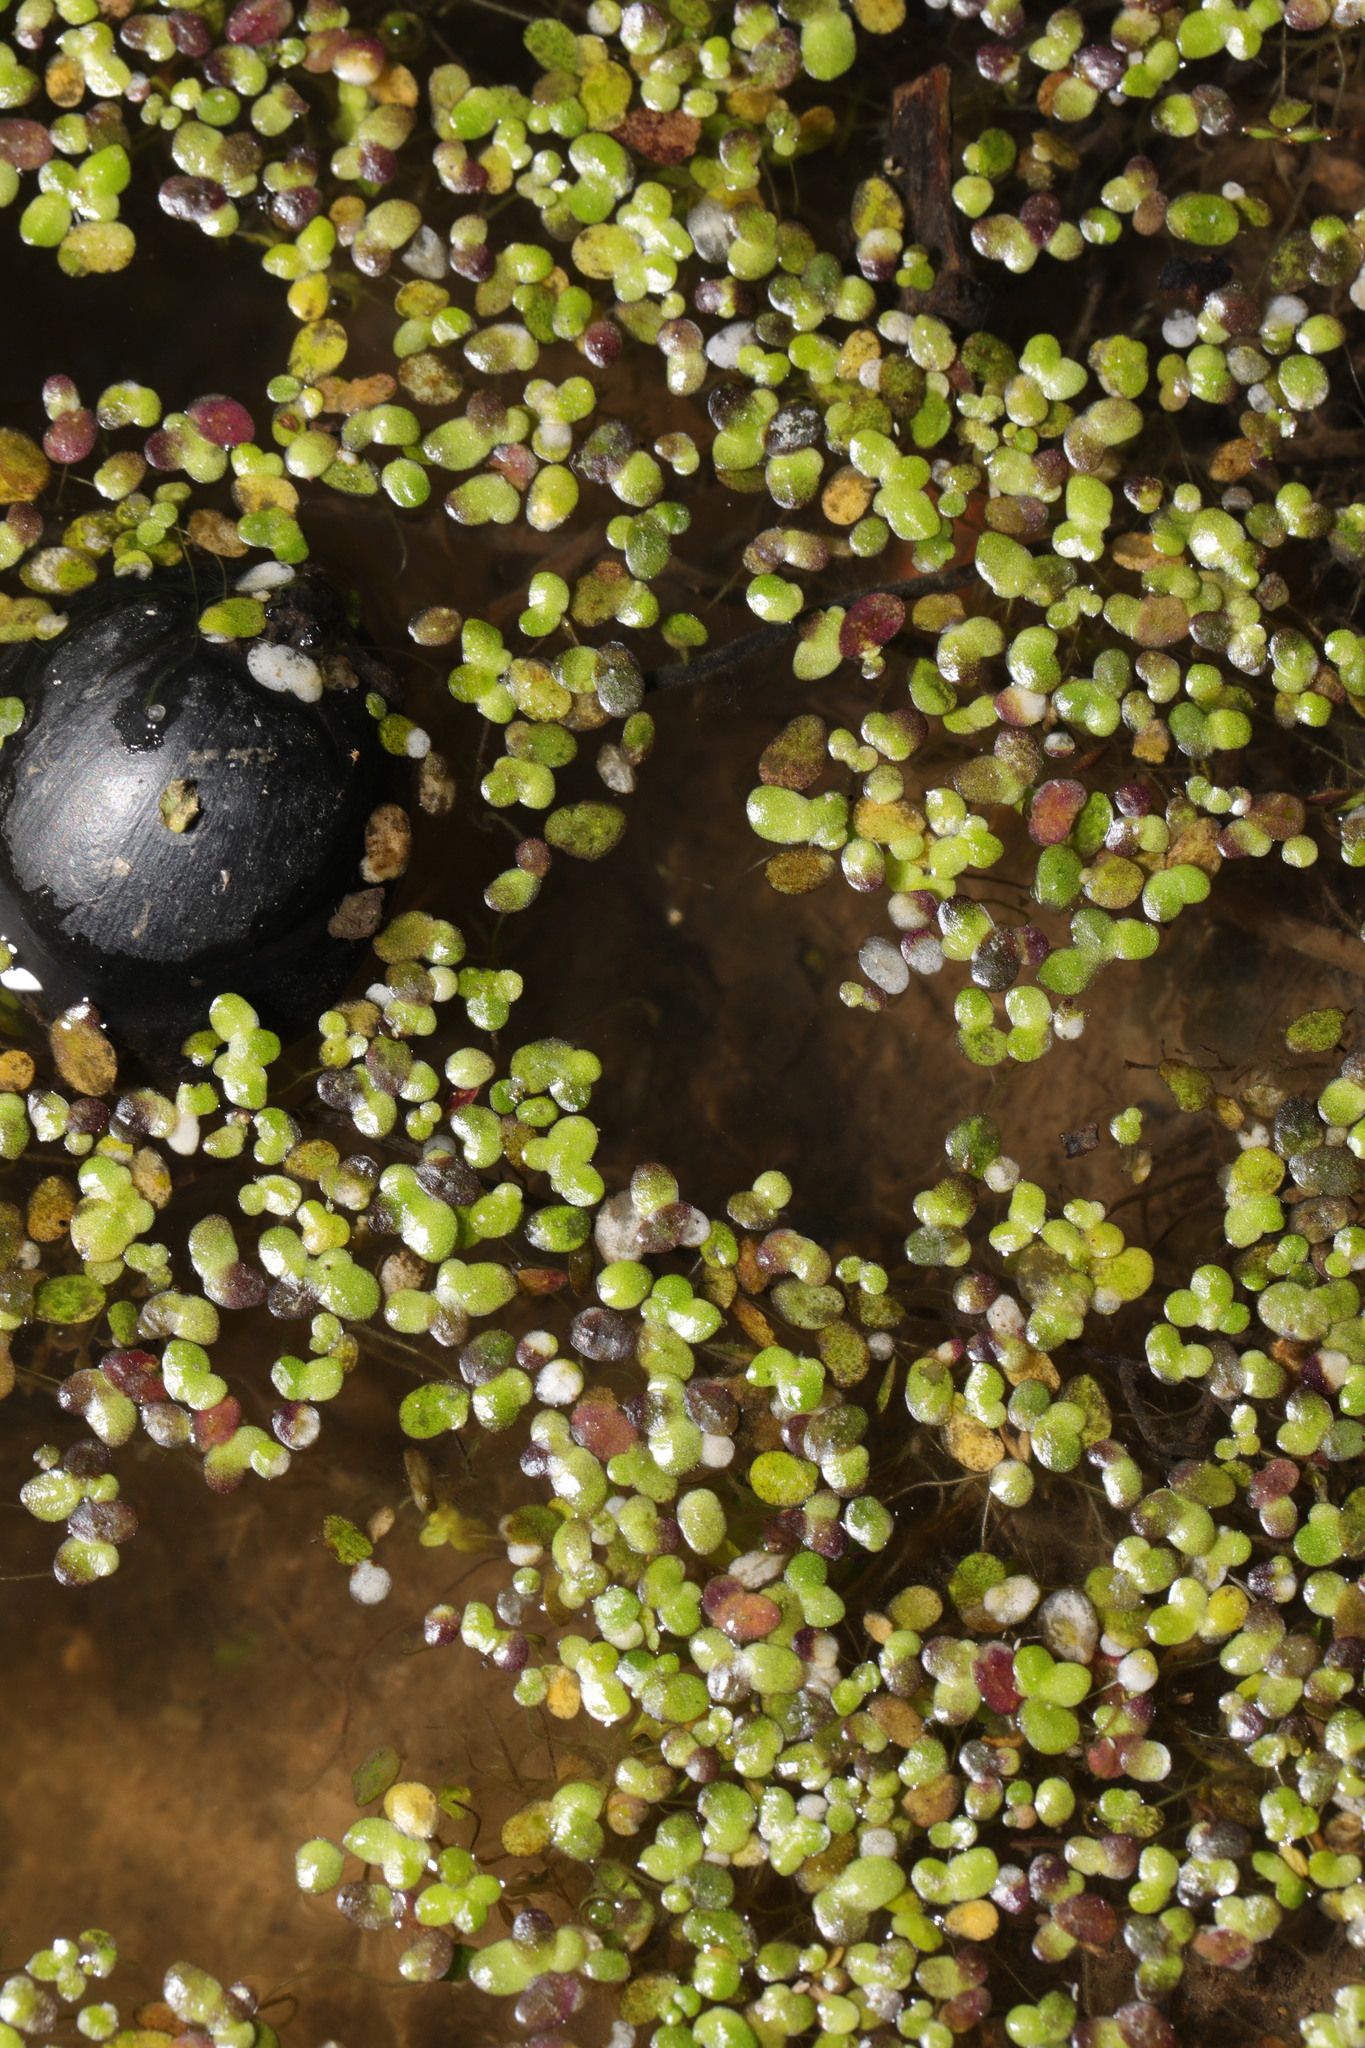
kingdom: Plantae
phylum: Tracheophyta
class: Liliopsida
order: Alismatales
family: Araceae
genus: Lemna
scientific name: Lemna minor
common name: Common duckweed
